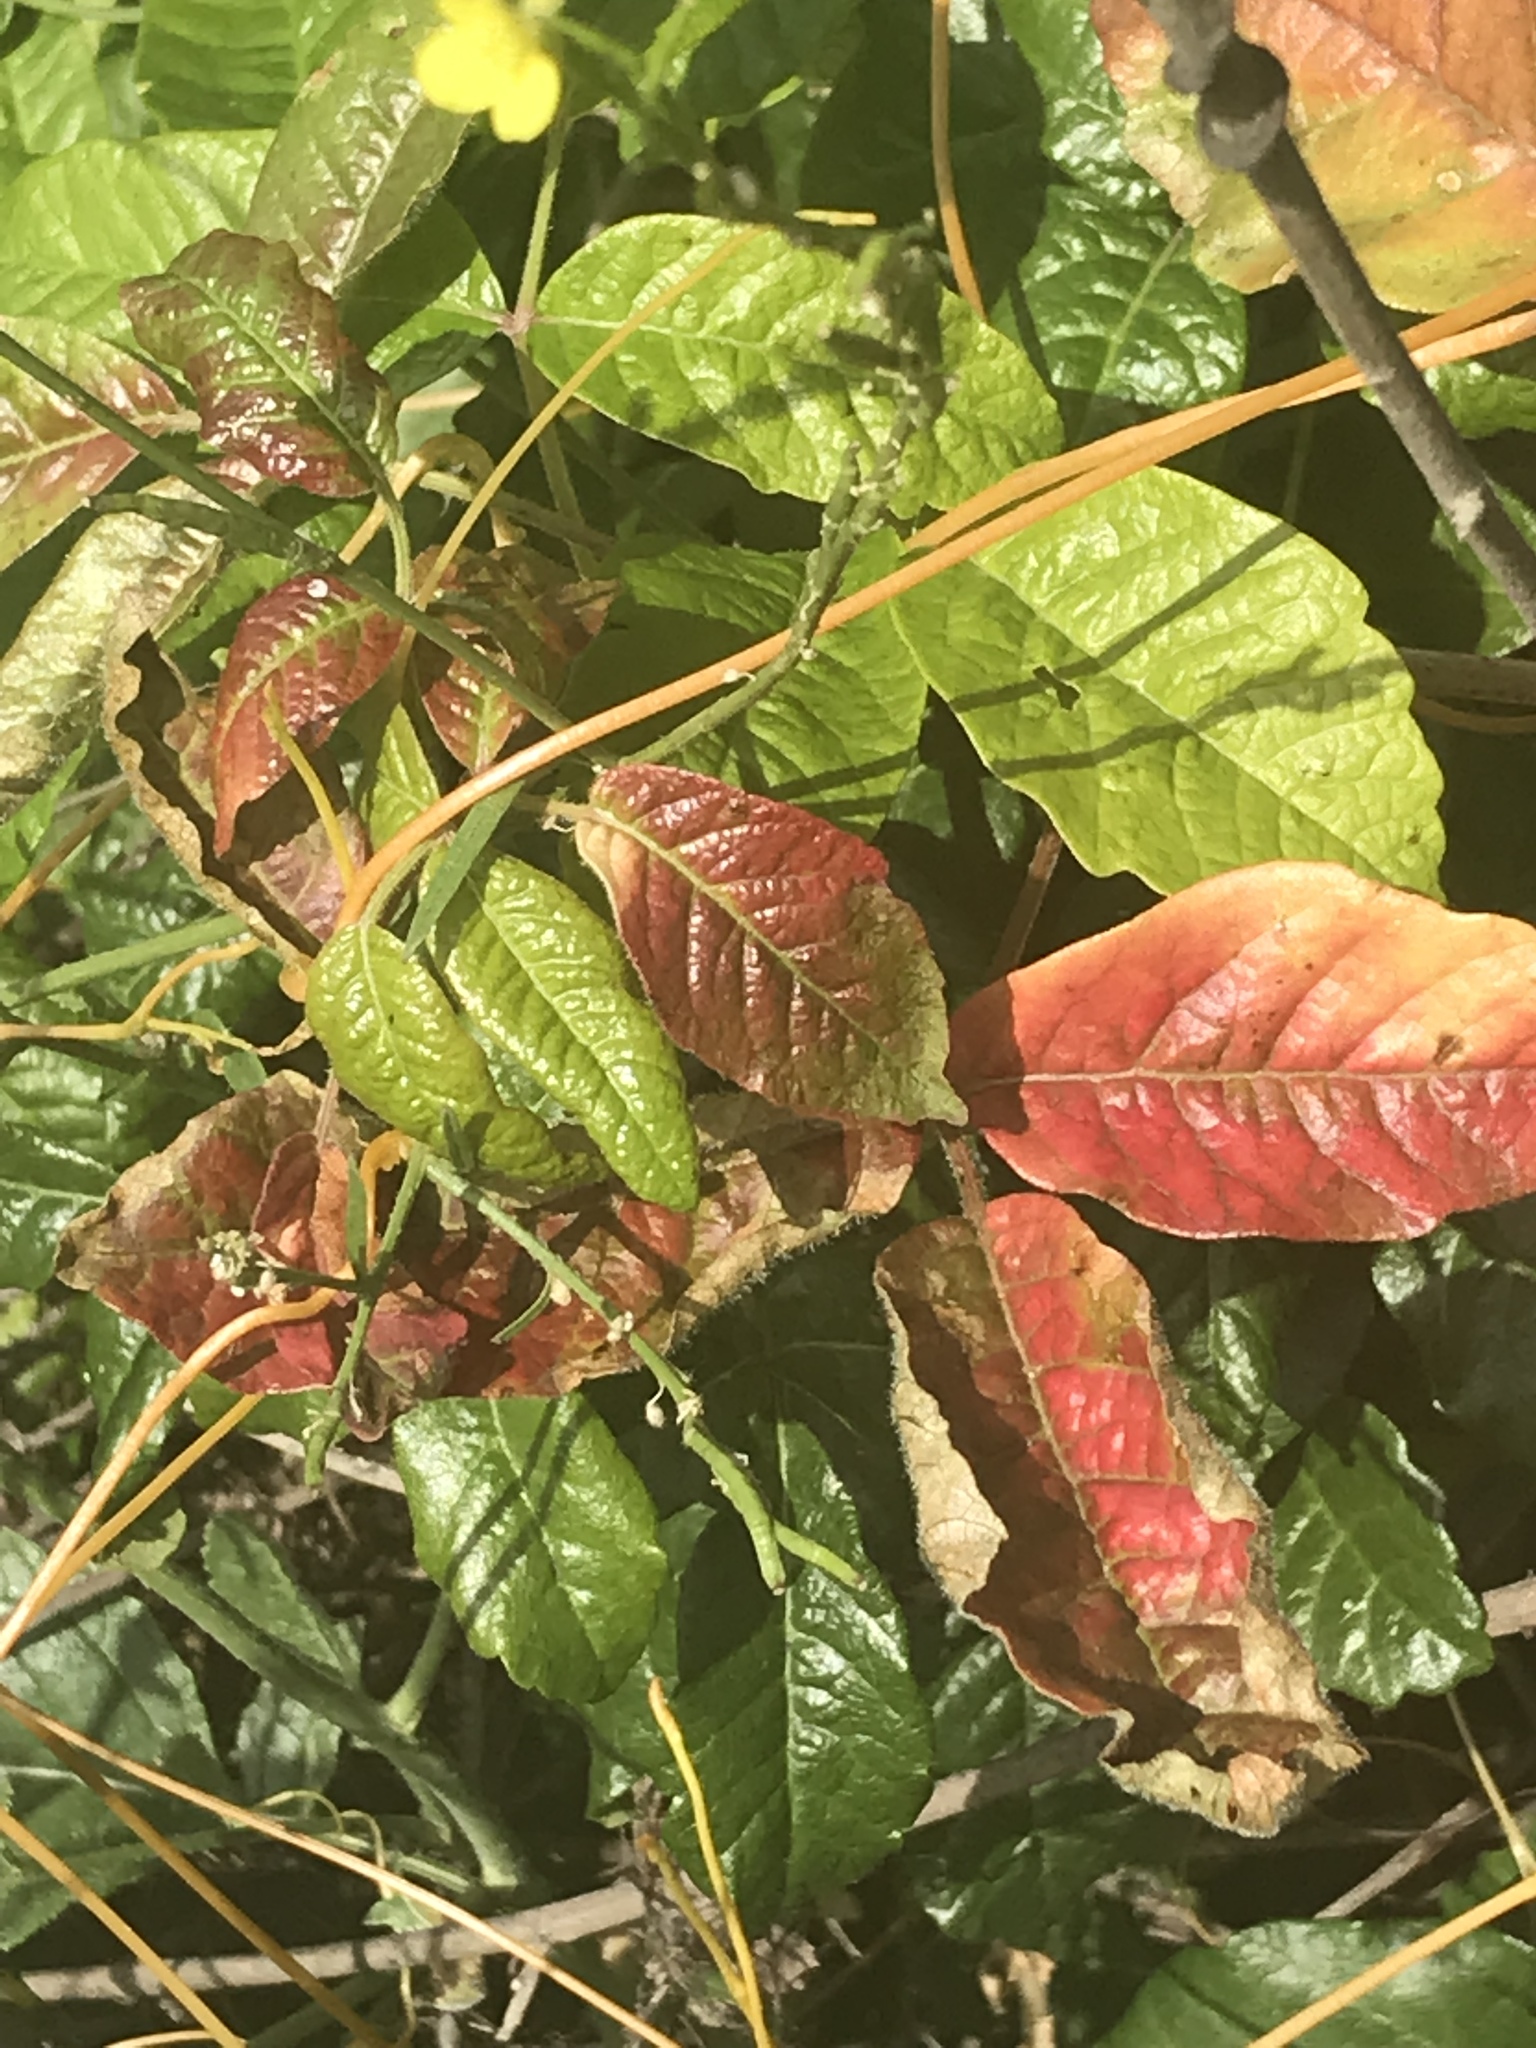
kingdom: Plantae
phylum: Tracheophyta
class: Magnoliopsida
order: Sapindales
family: Anacardiaceae
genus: Toxicodendron
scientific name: Toxicodendron diversilobum
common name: Pacific poison-oak
